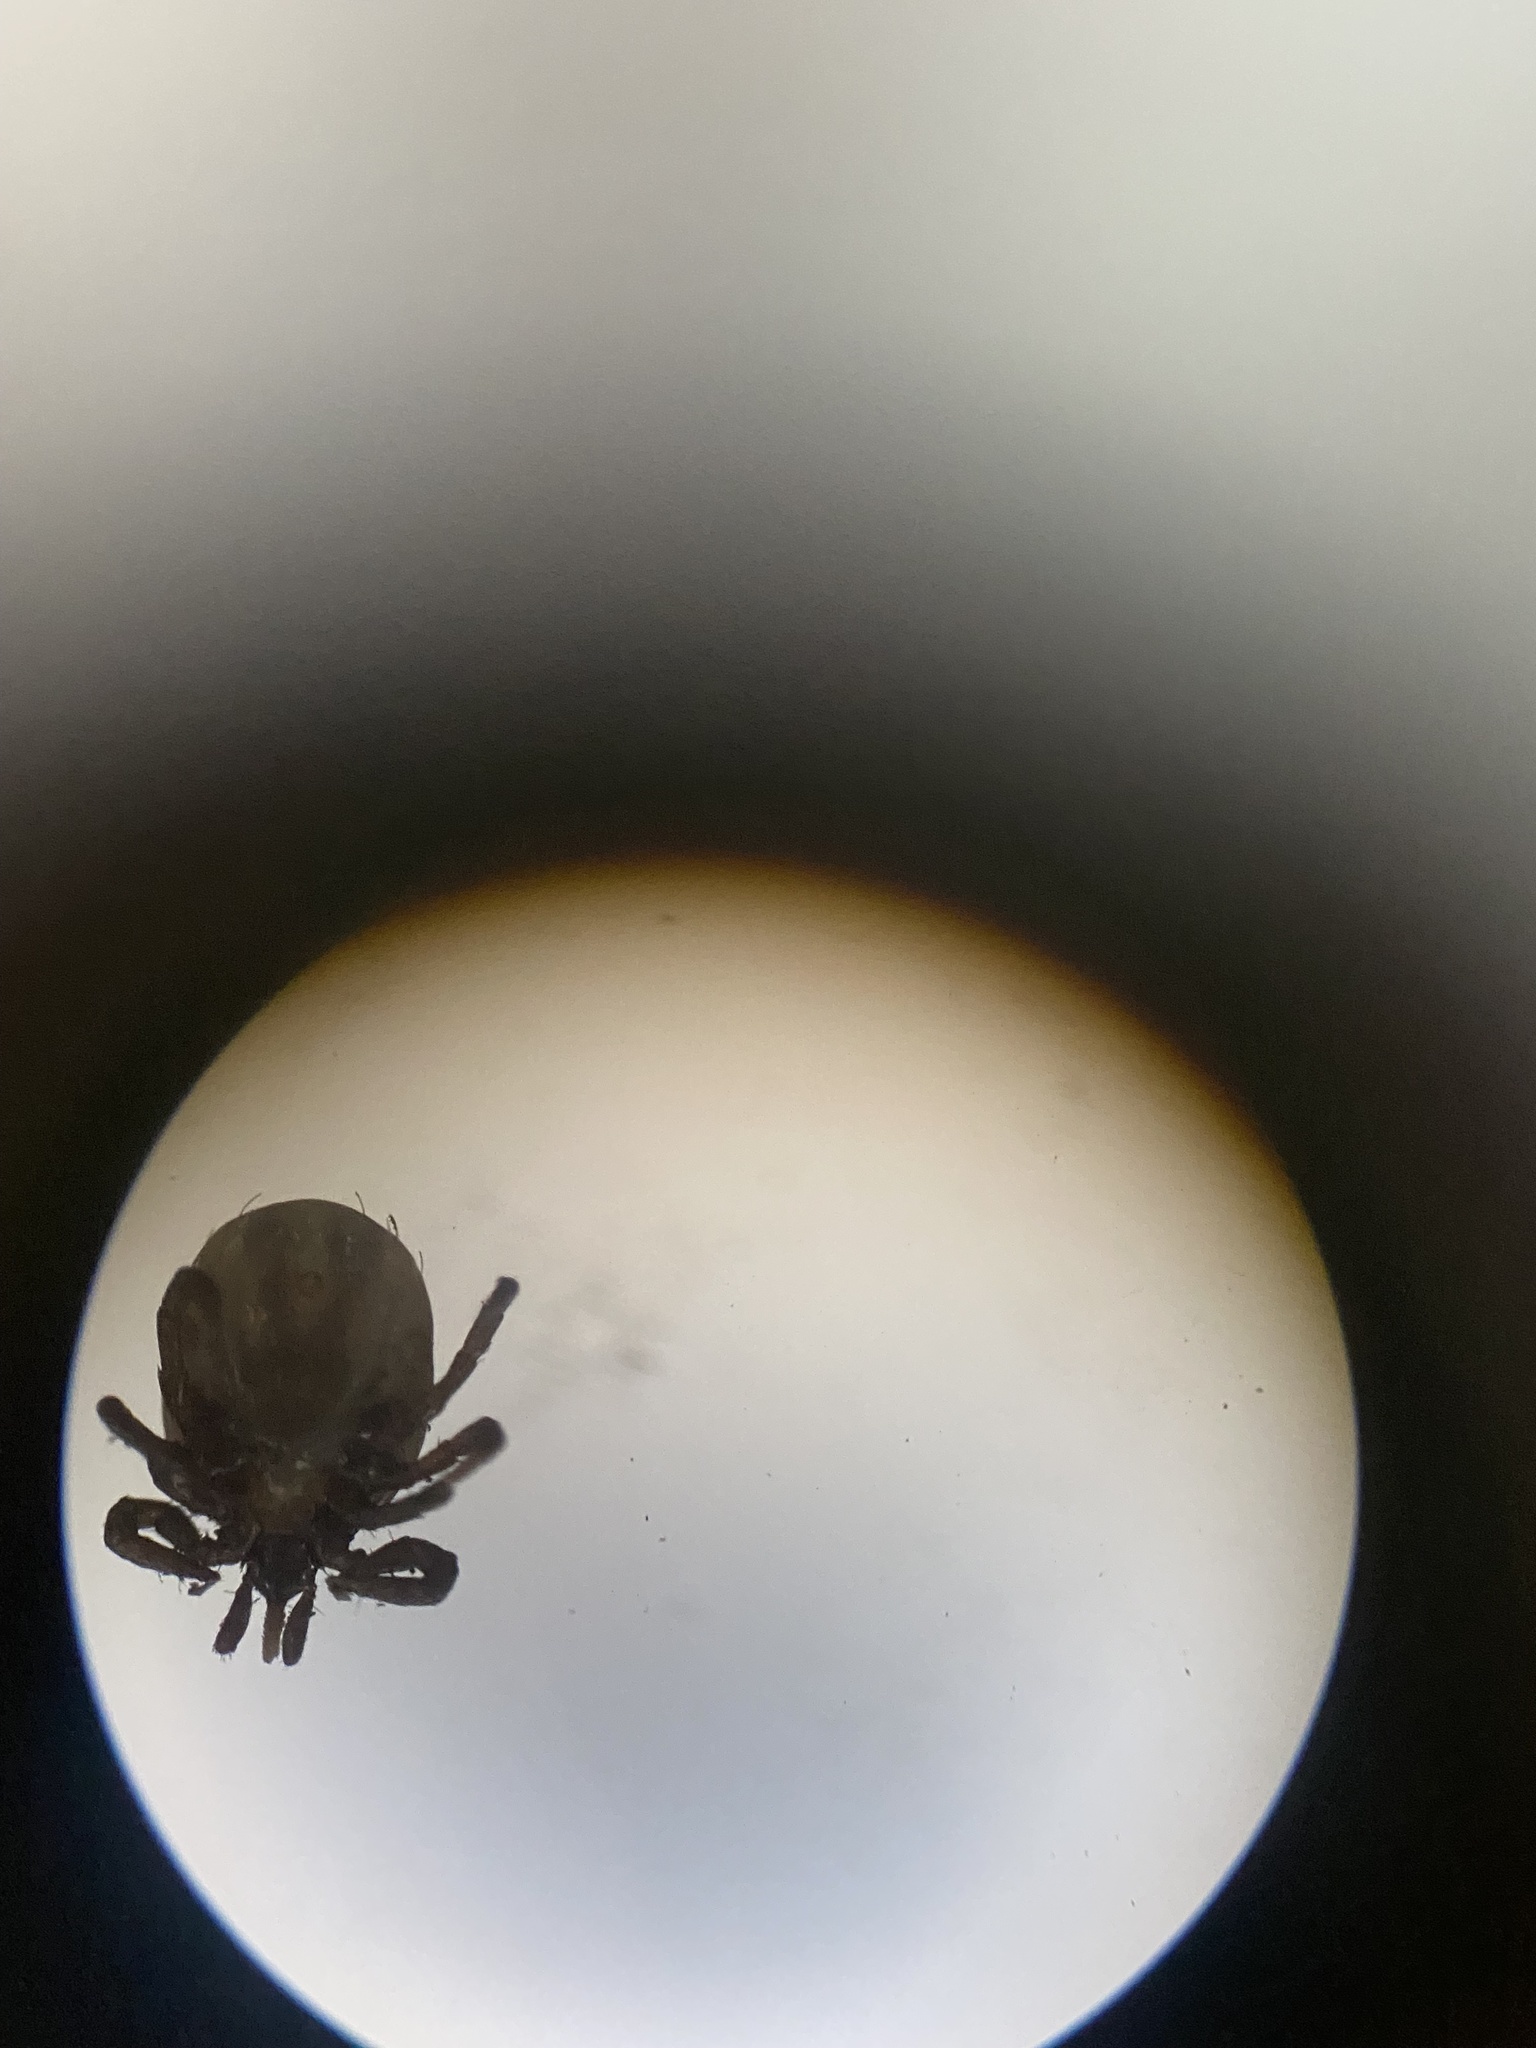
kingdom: Animalia
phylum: Arthropoda
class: Arachnida
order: Ixodida
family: Ixodidae
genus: Ixodes
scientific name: Ixodes ricinus
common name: Castor bean tick
